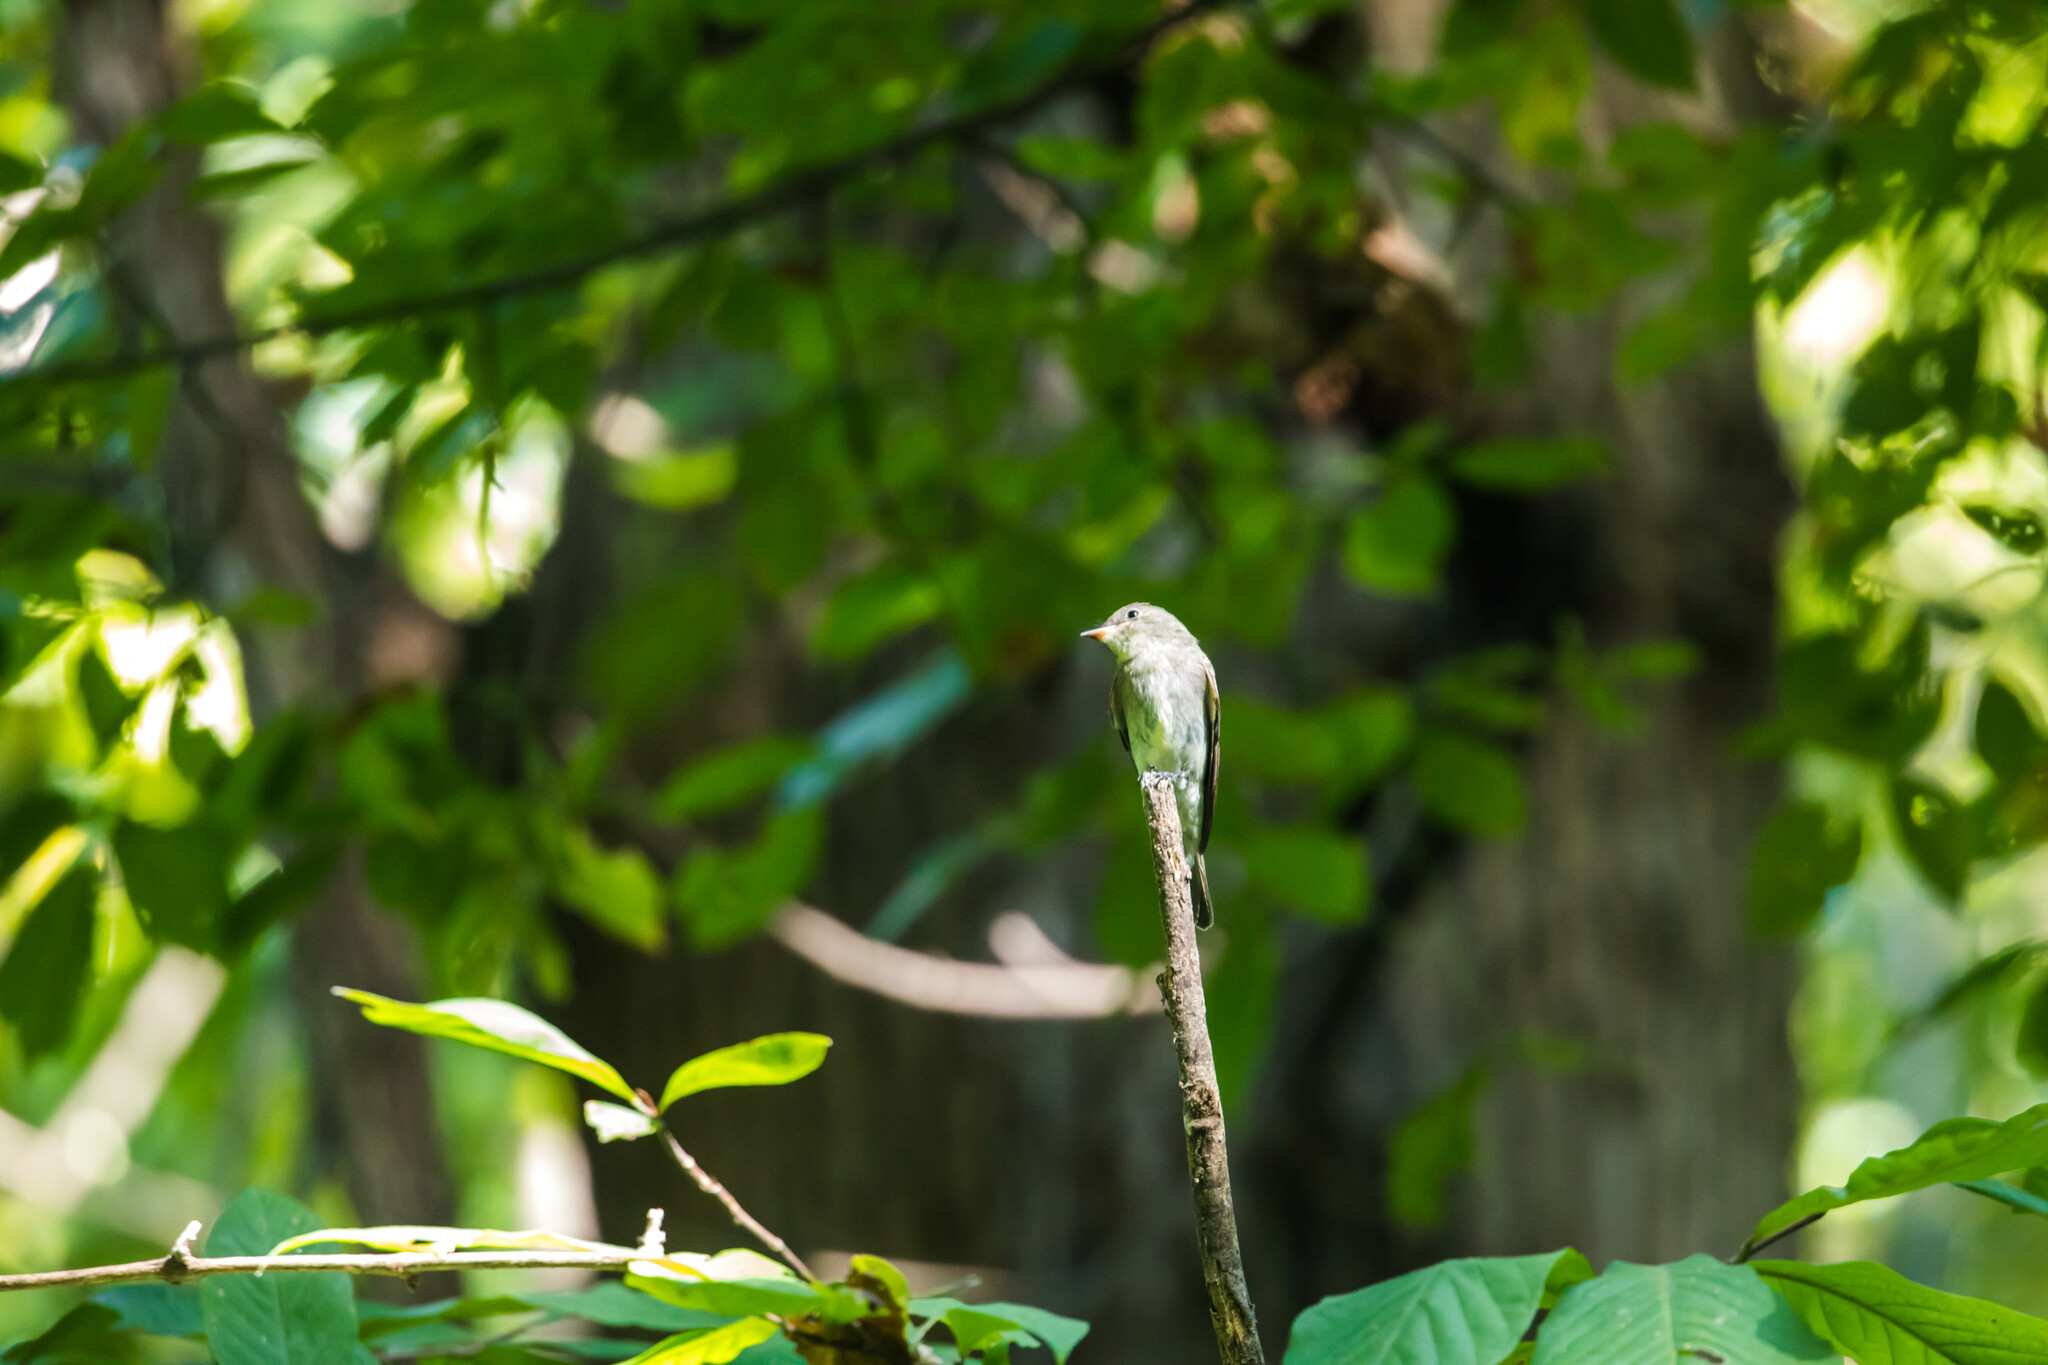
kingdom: Animalia
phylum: Chordata
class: Aves
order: Passeriformes
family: Tyrannidae
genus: Contopus
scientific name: Contopus virens
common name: Eastern wood-pewee
